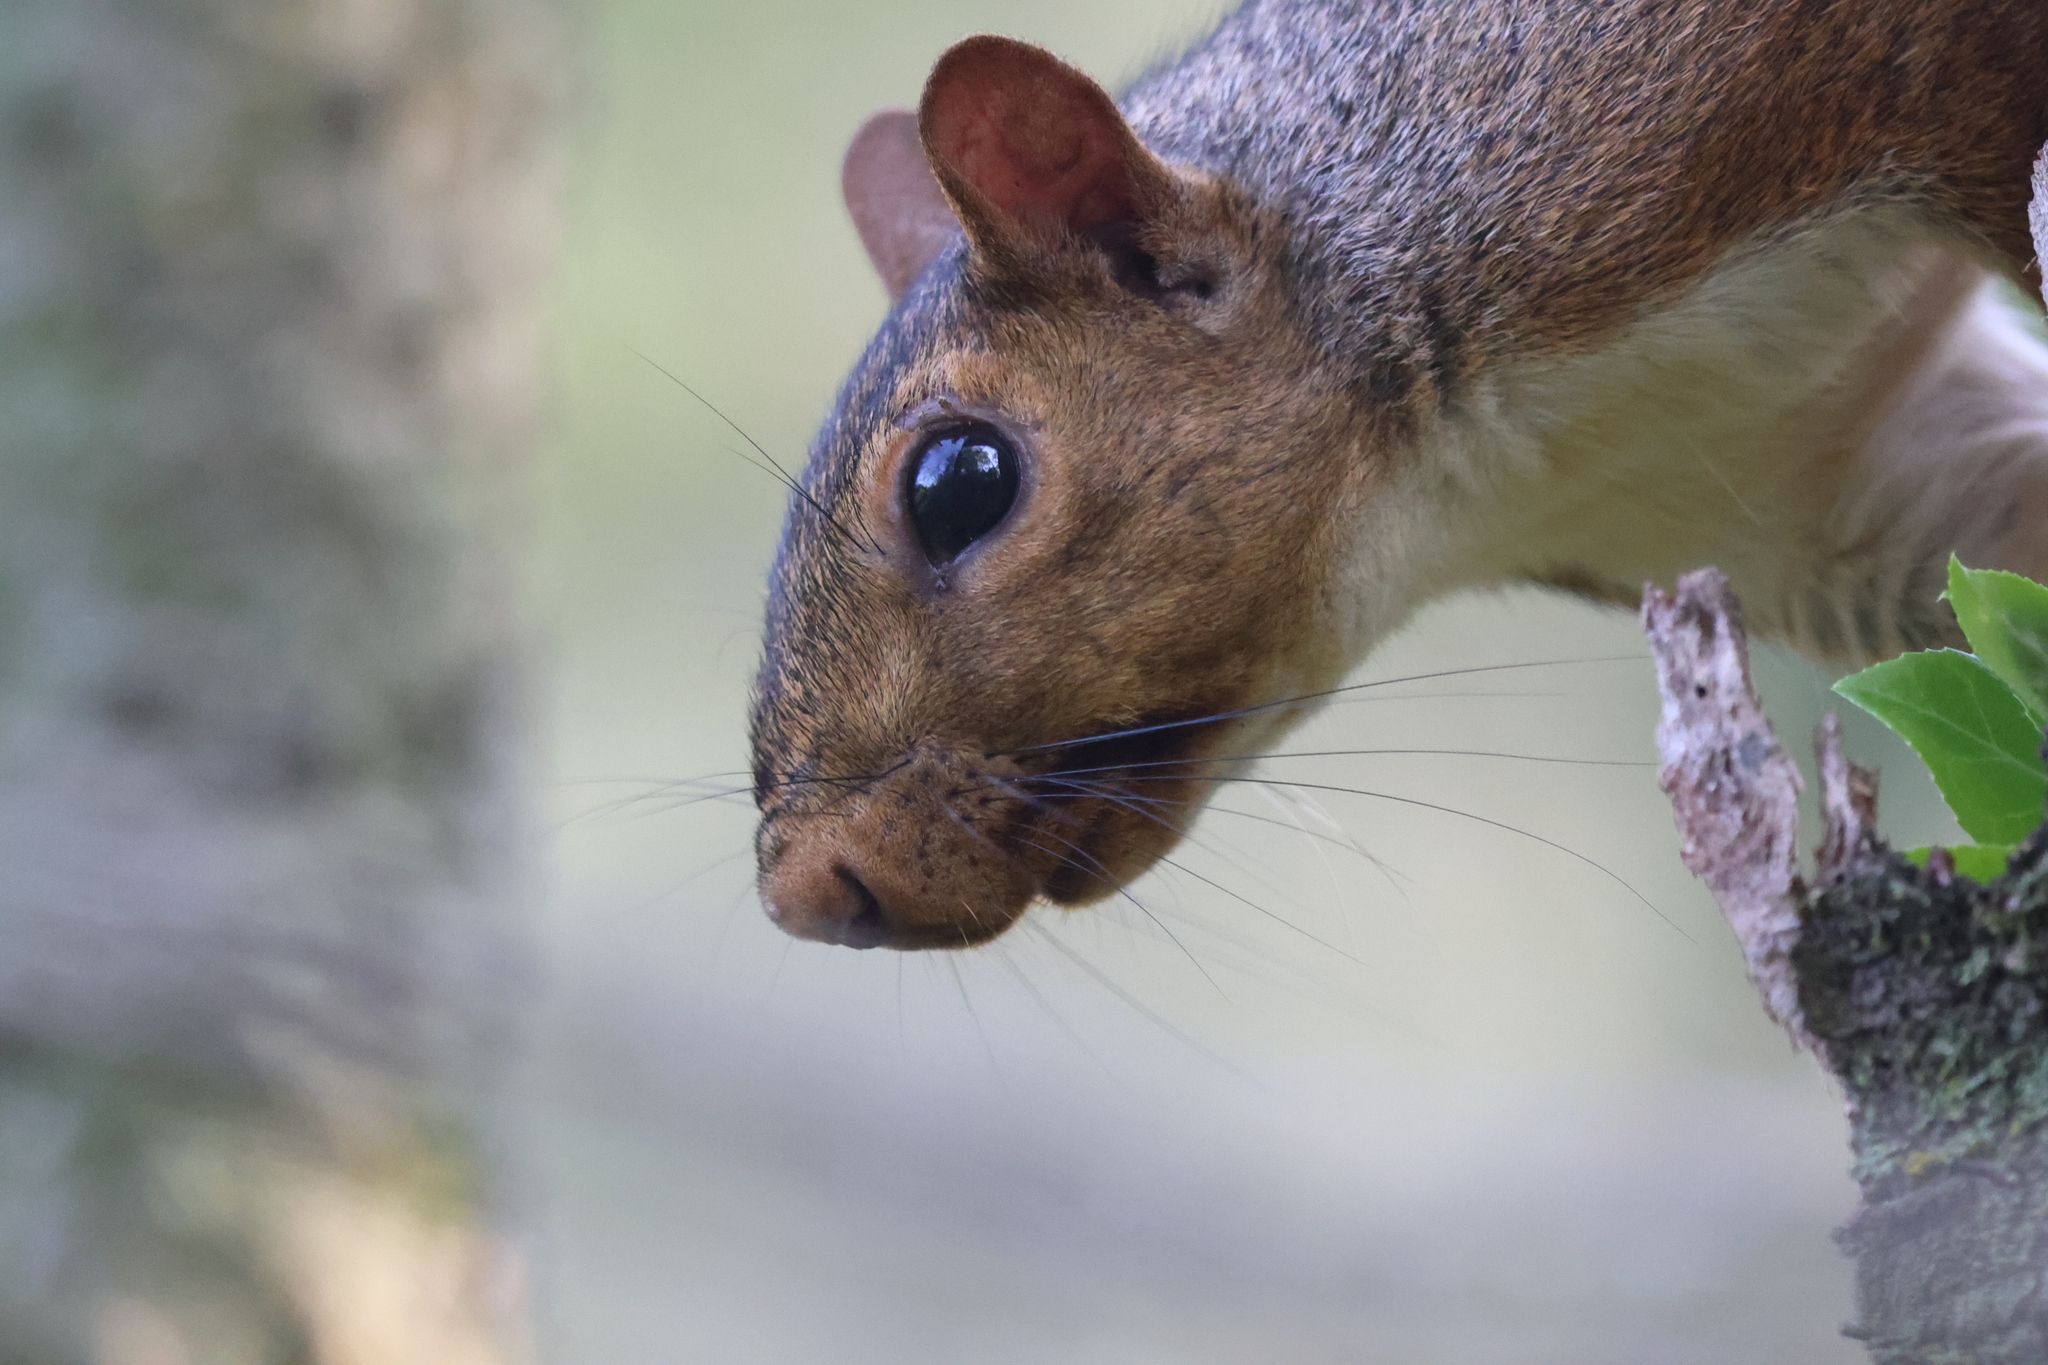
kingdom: Animalia
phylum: Chordata
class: Mammalia
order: Rodentia
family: Sciuridae
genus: Sciurus
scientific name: Sciurus carolinensis
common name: Eastern gray squirrel
